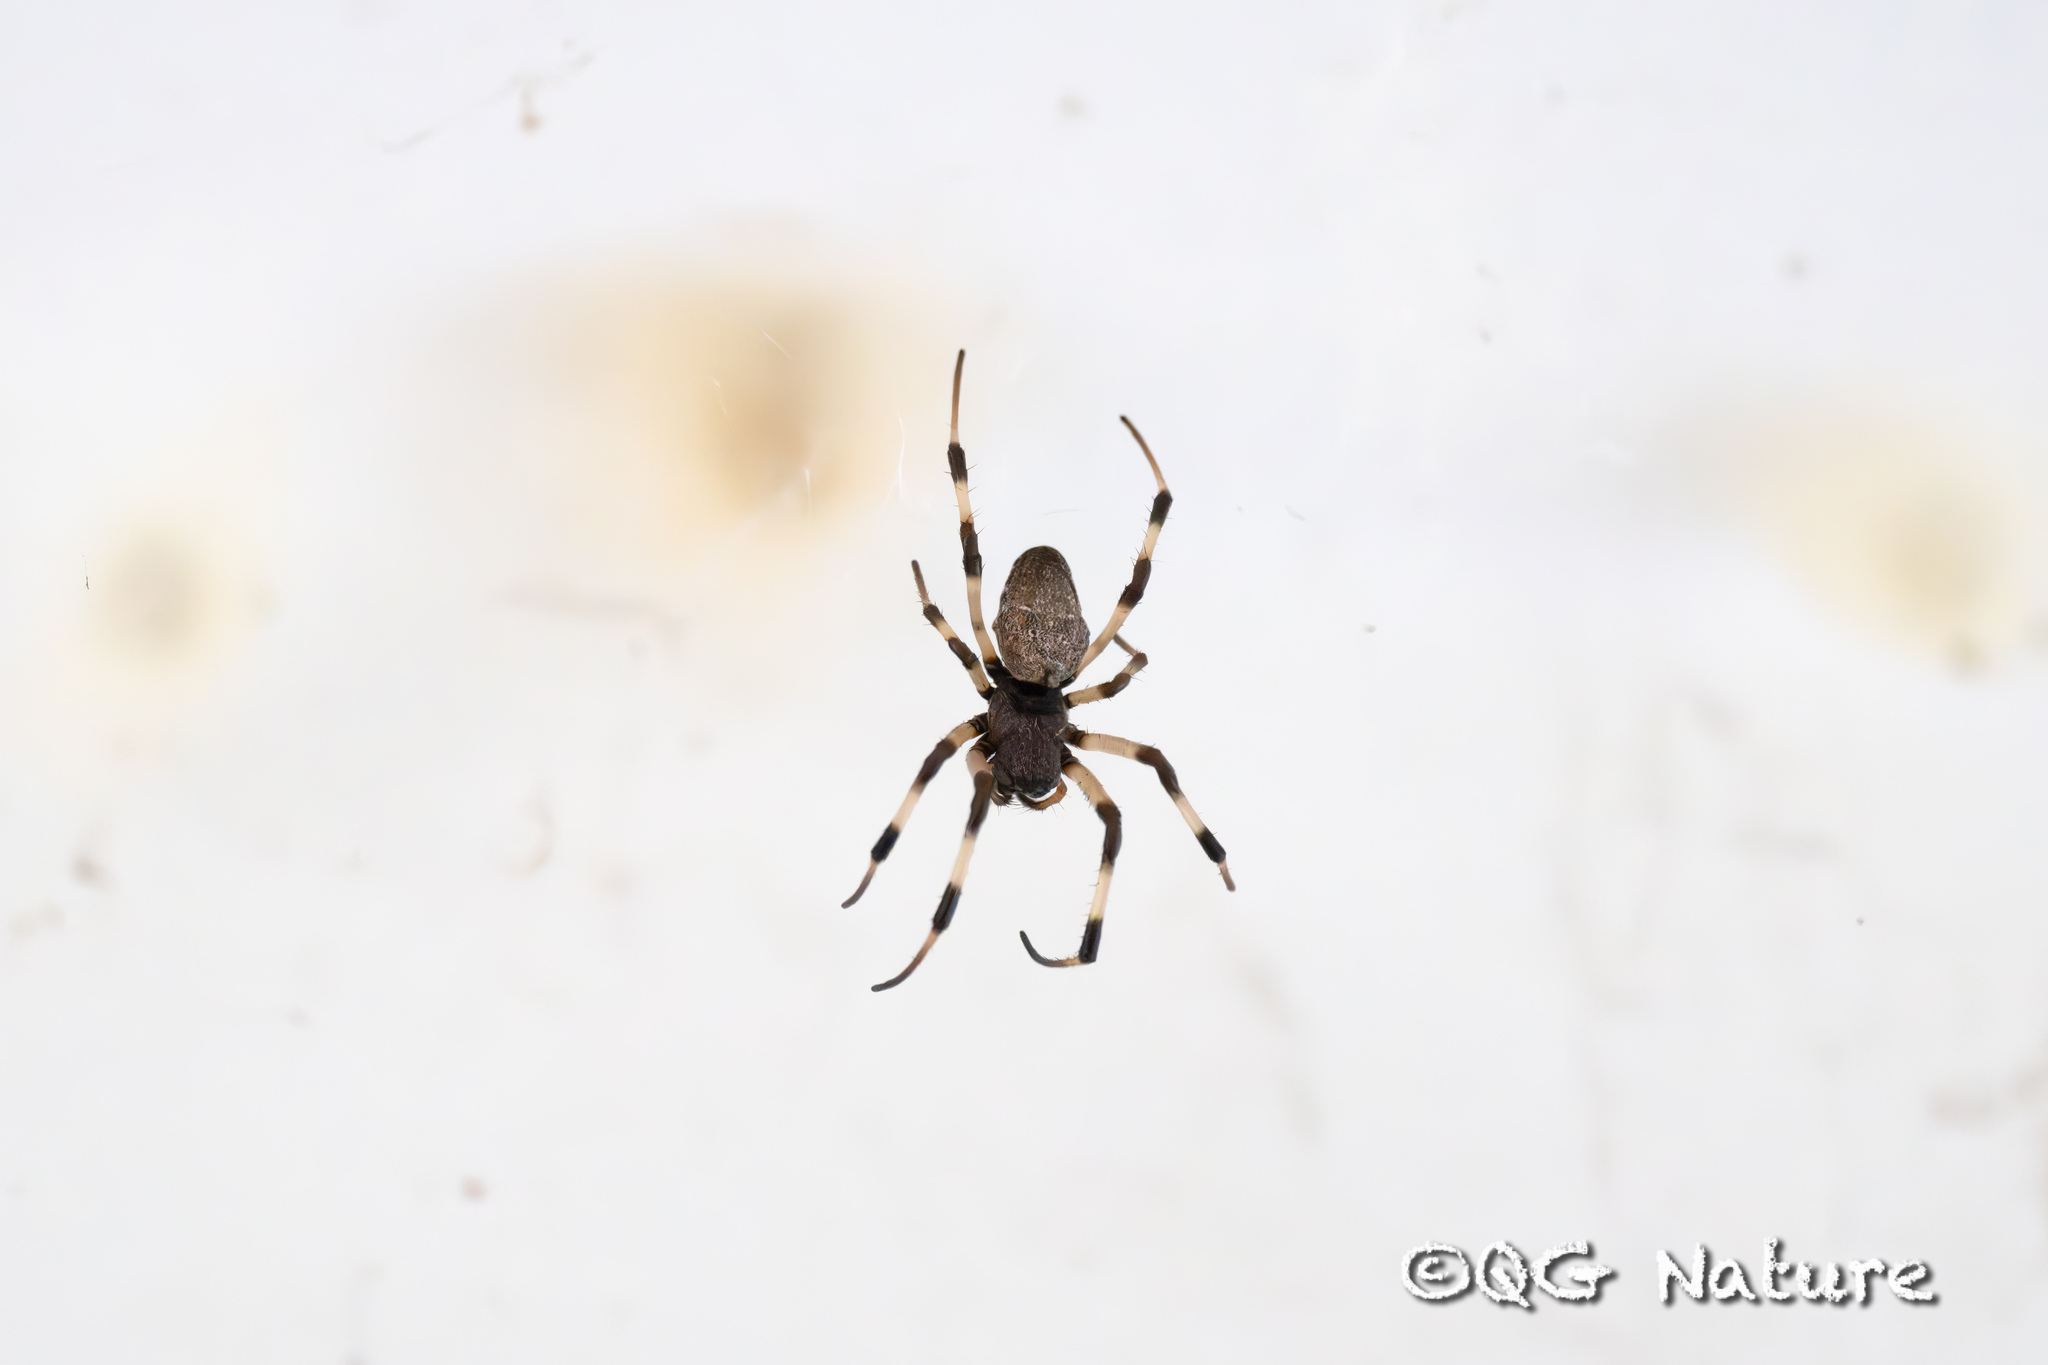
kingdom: Animalia
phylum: Arthropoda
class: Arachnida
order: Araneae
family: Araneidae
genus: Nephilengys
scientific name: Nephilengys malabarensis
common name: Asian hermit spider
